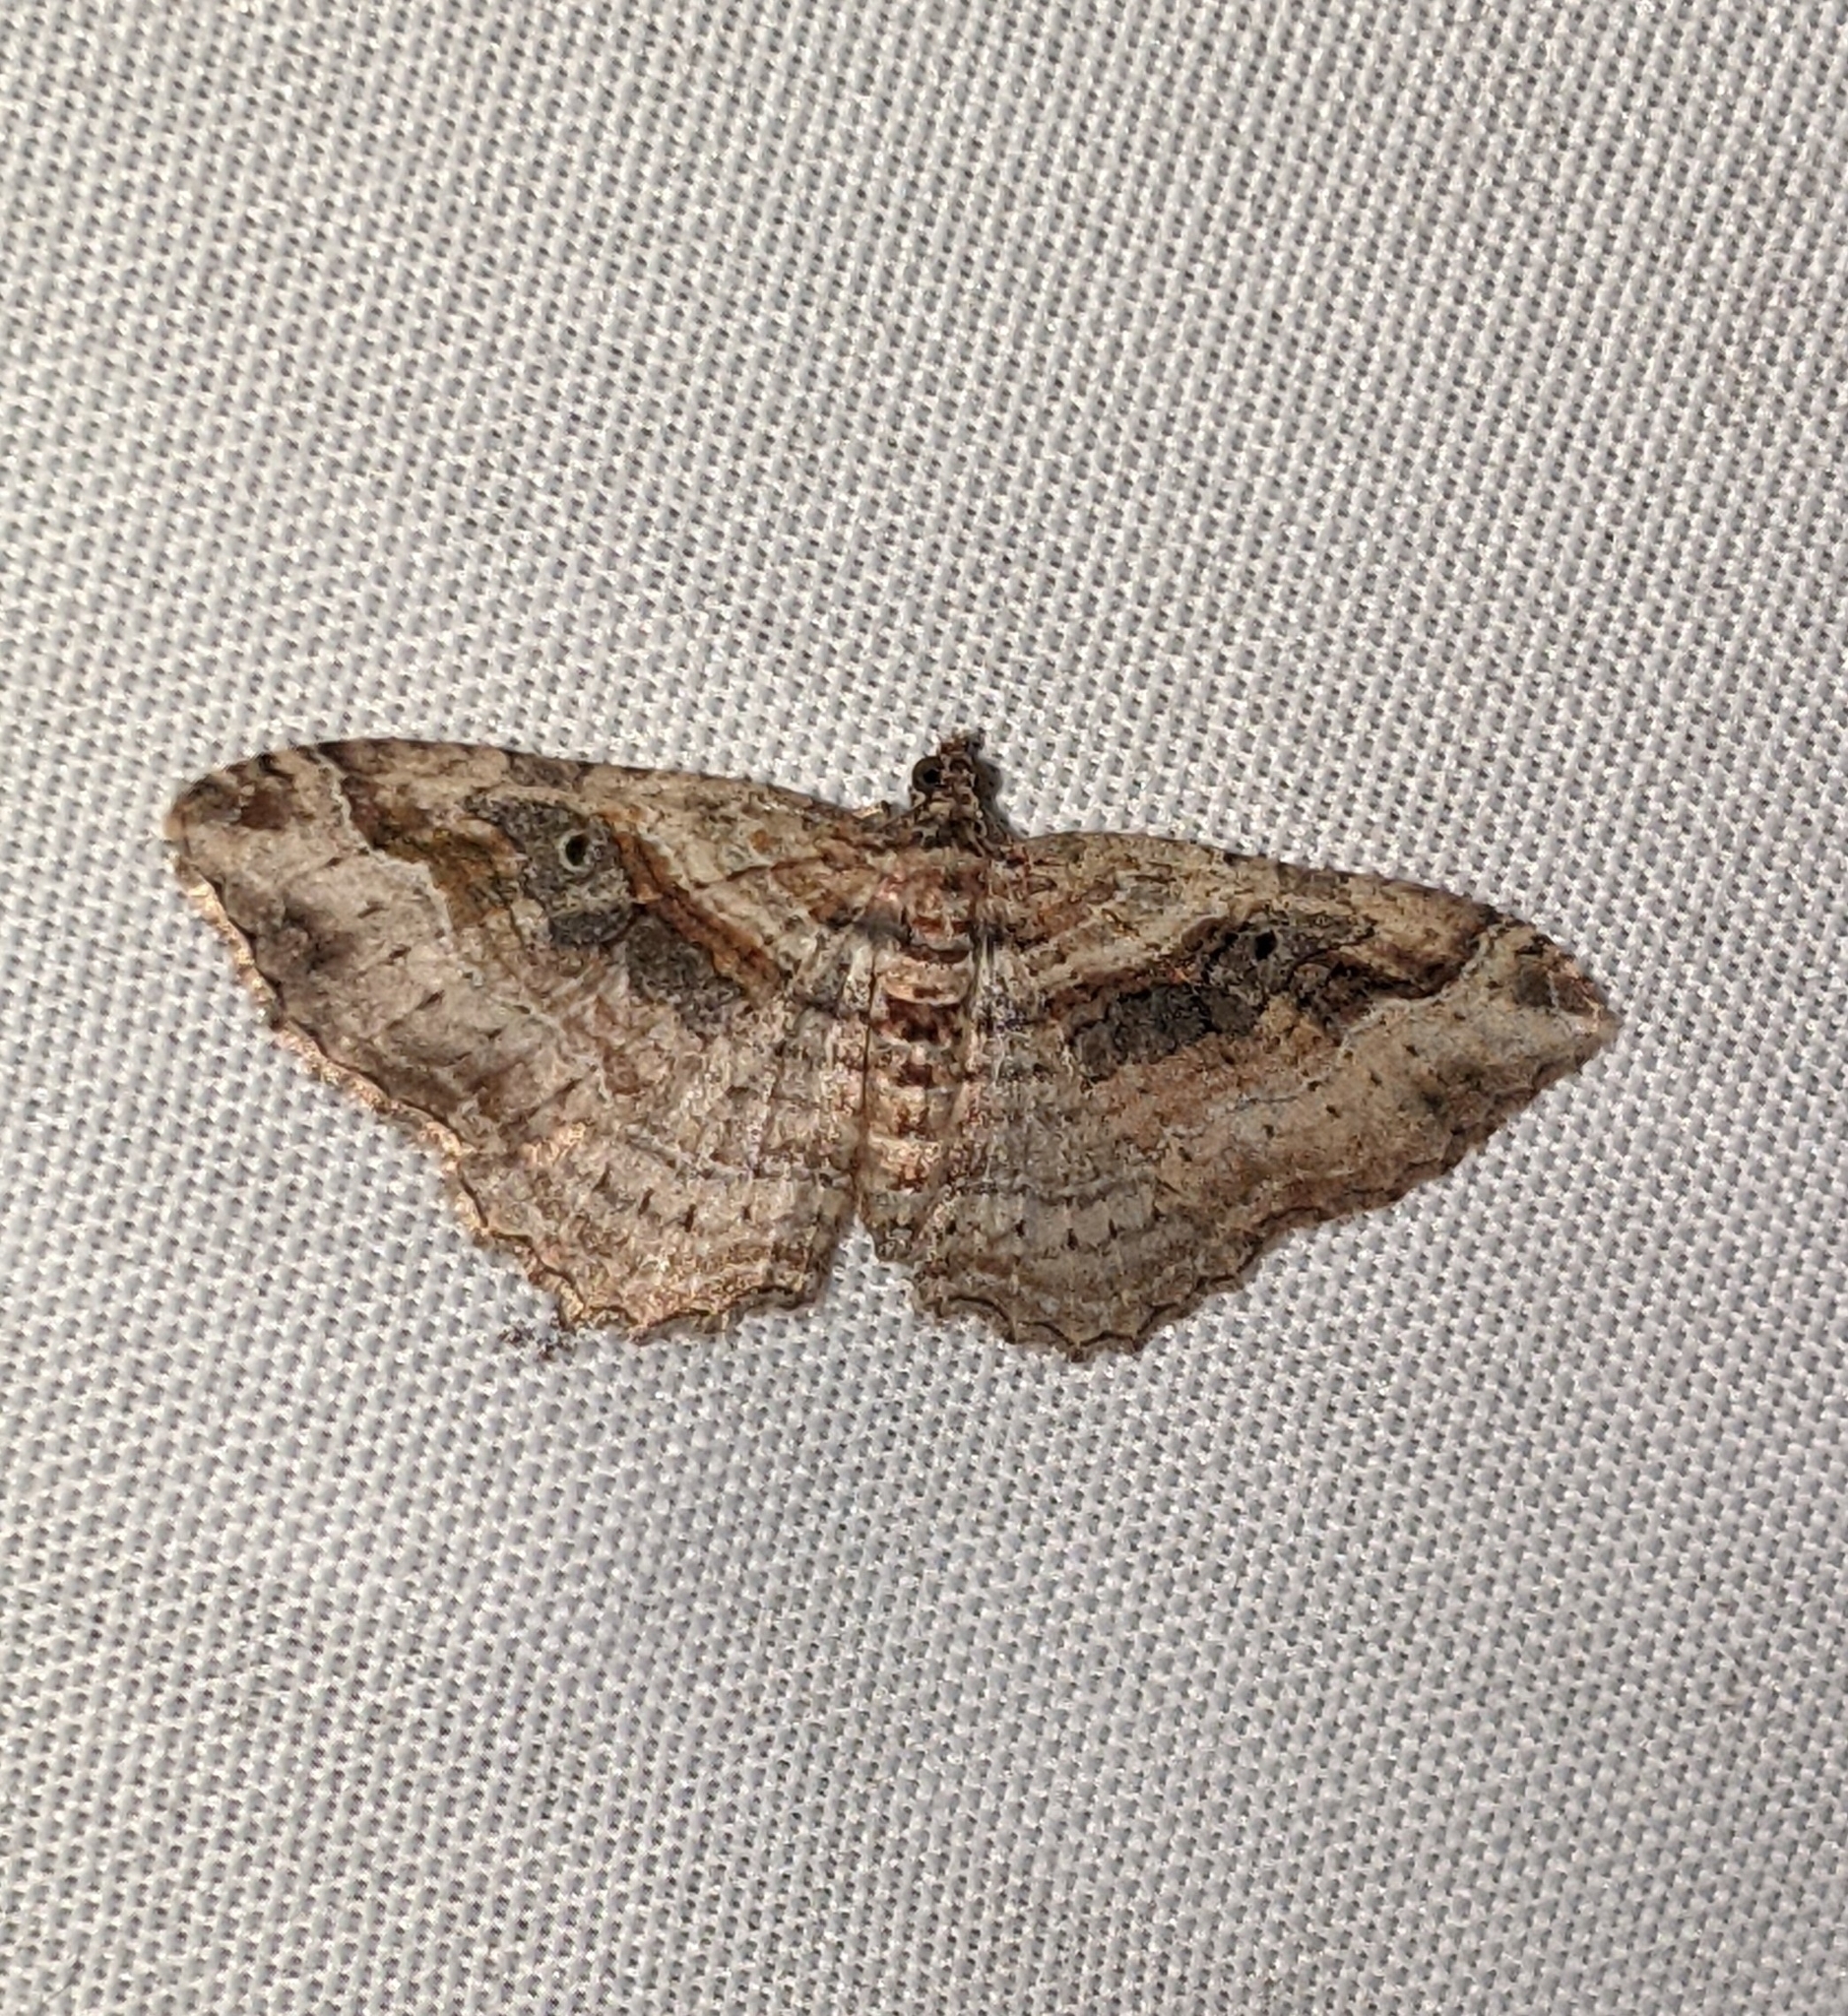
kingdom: Animalia
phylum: Arthropoda
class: Insecta
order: Lepidoptera
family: Geometridae
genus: Costaconvexa
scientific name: Costaconvexa centrostrigaria
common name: Bent-line carpet
